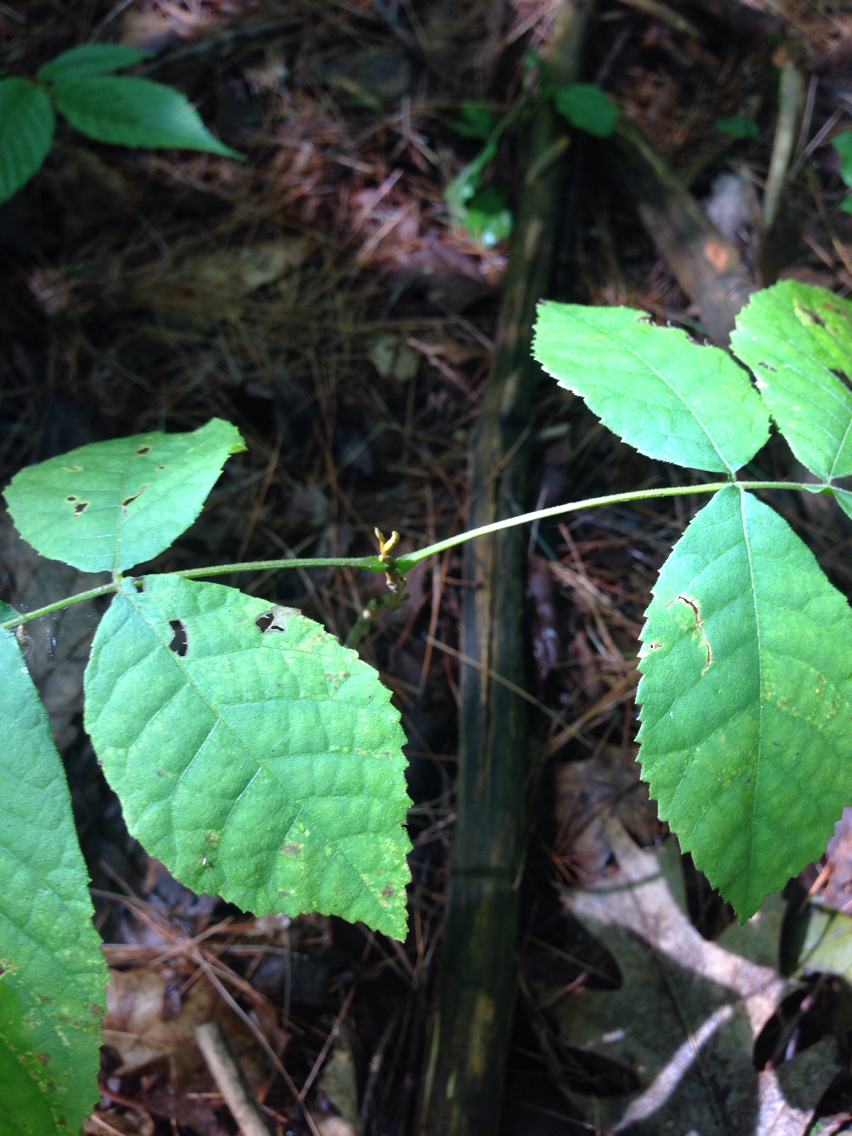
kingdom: Plantae
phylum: Tracheophyta
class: Magnoliopsida
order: Fagales
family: Juglandaceae
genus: Carya
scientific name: Carya cordiformis
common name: Bitternut hickory
